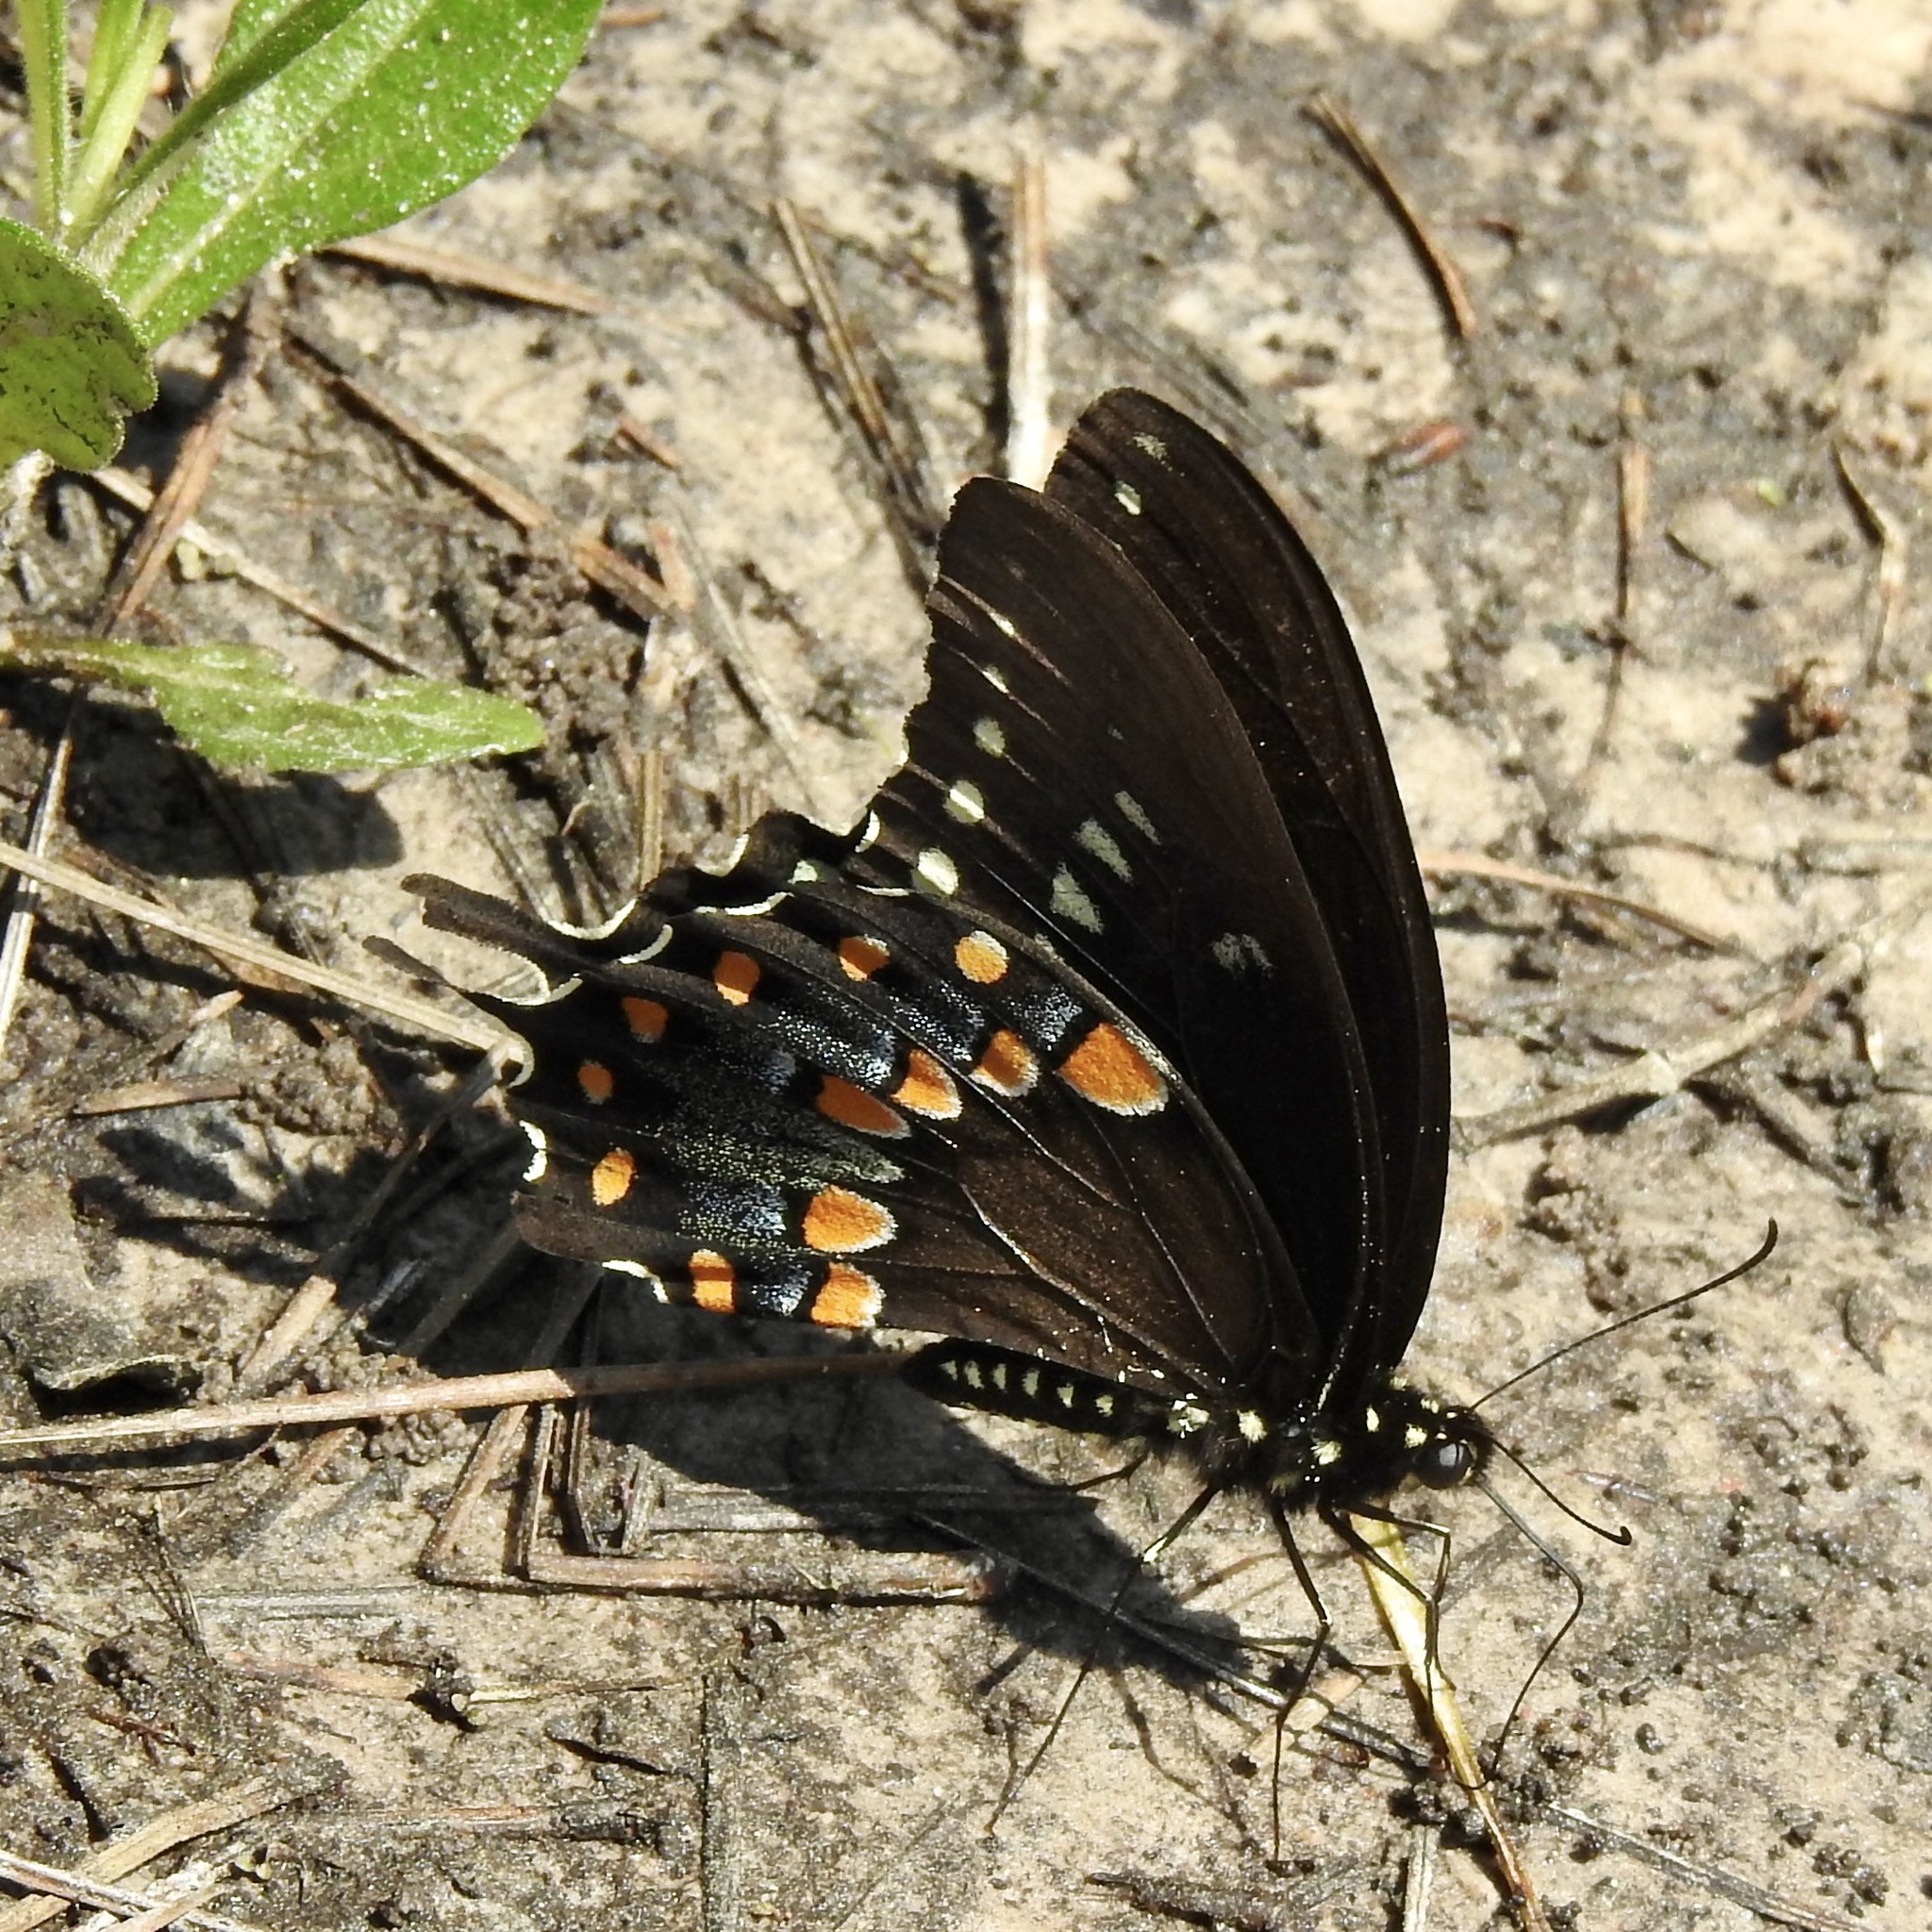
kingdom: Animalia
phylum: Arthropoda
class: Insecta
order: Lepidoptera
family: Papilionidae
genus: Papilio
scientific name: Papilio troilus
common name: Spicebush swallowtail
